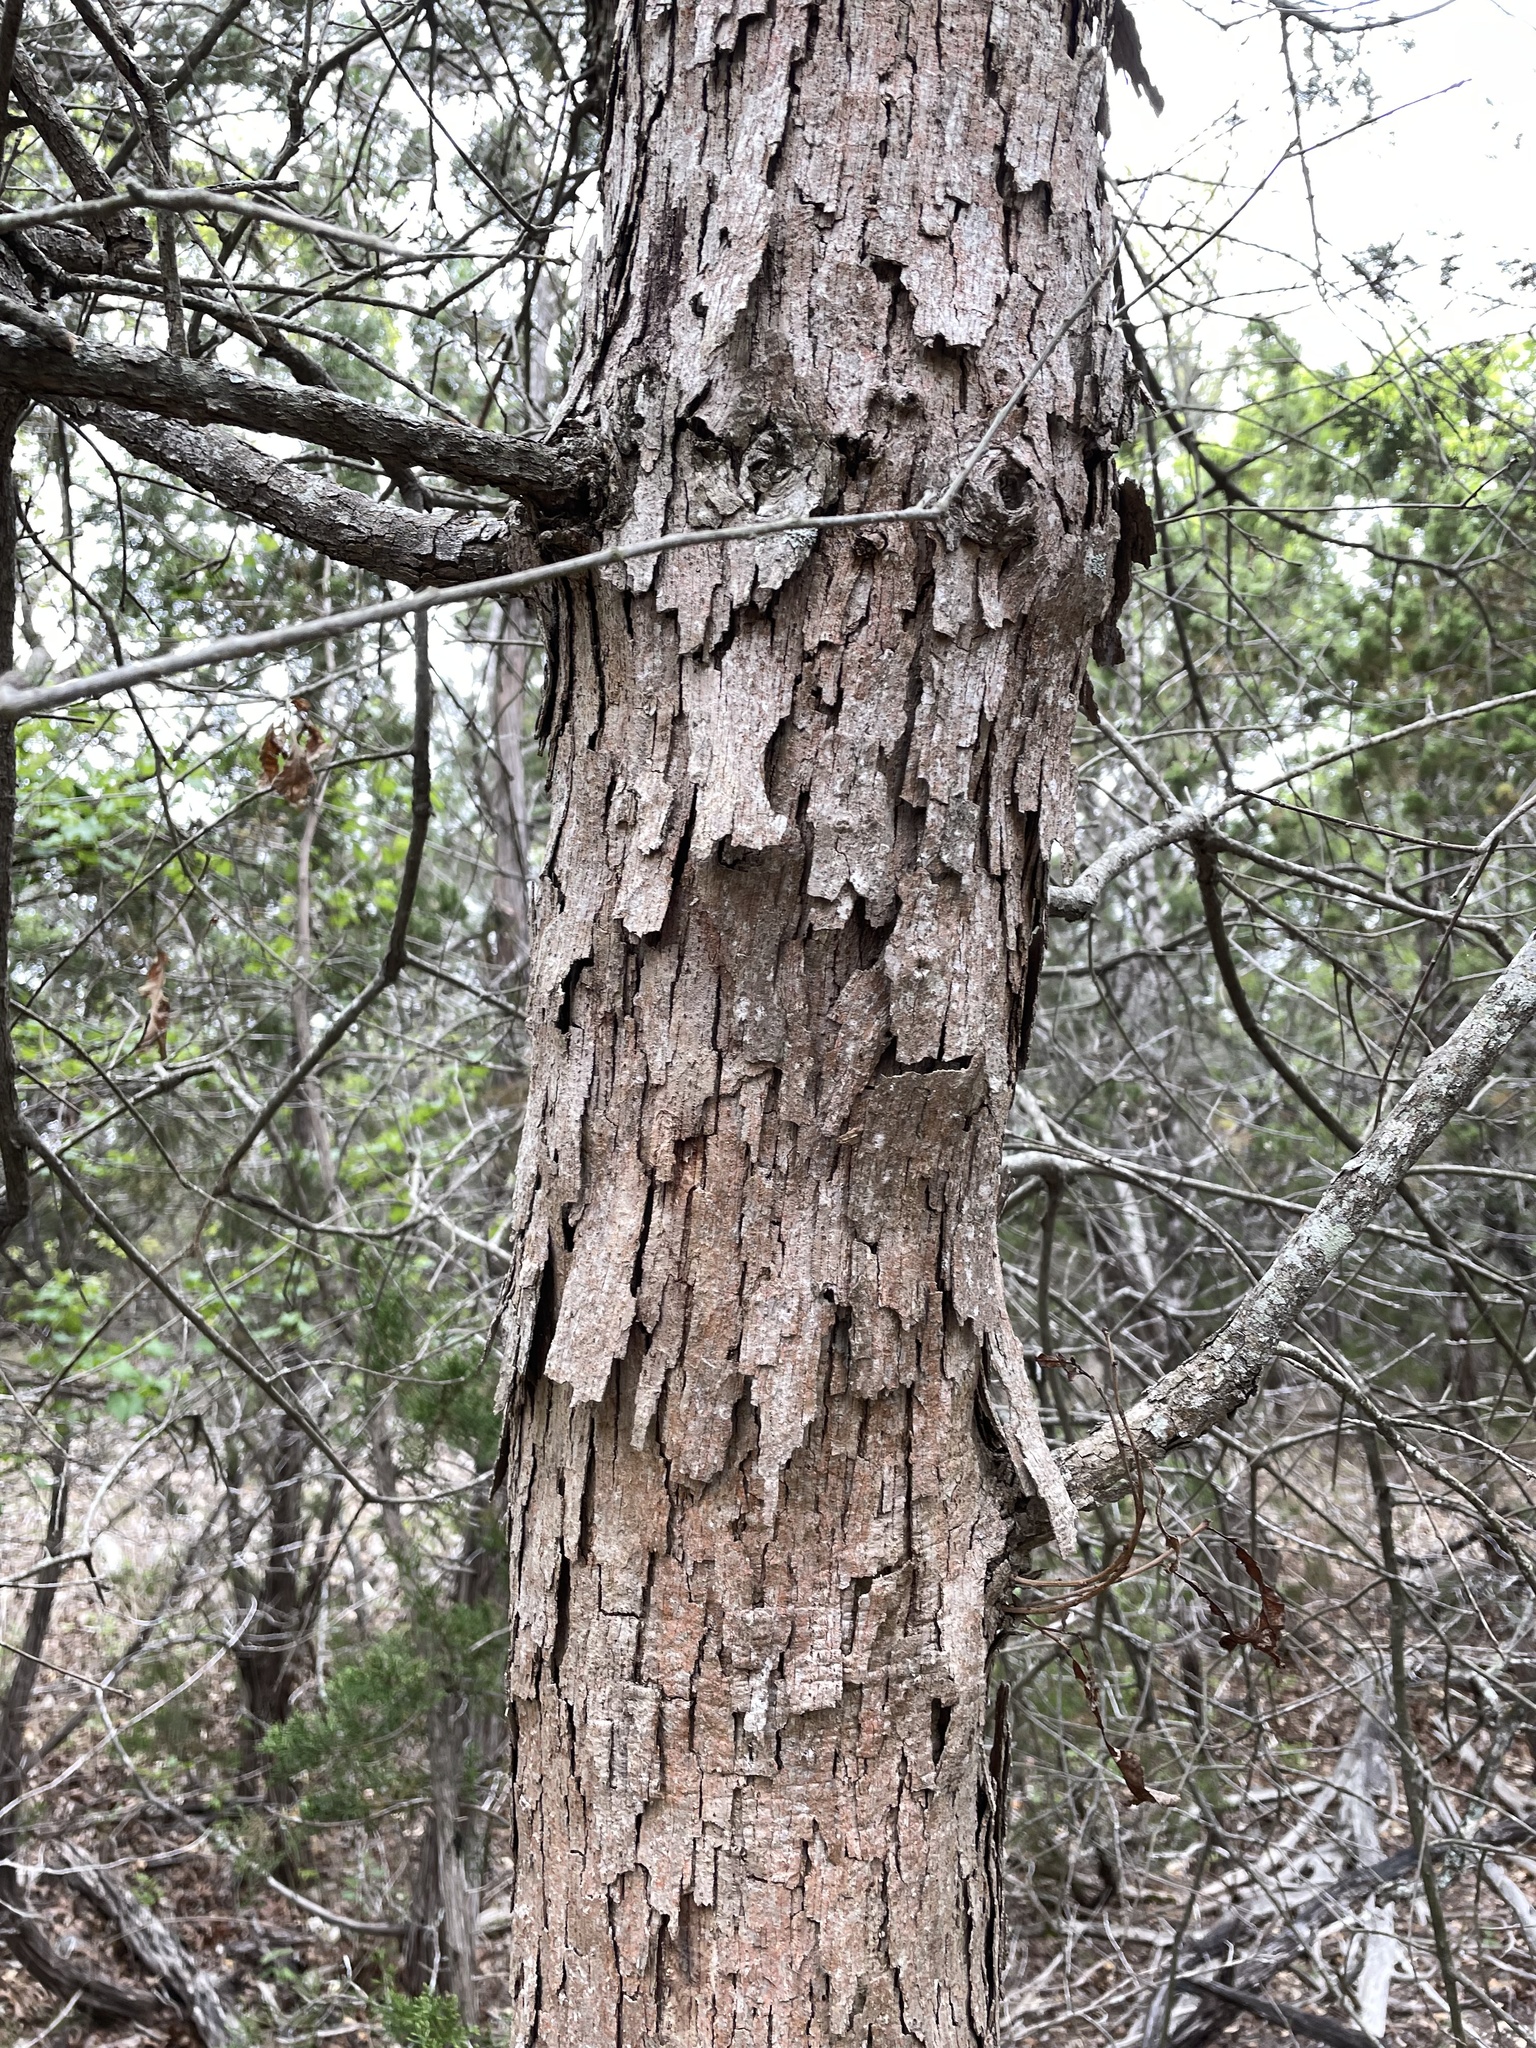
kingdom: Plantae
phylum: Tracheophyta
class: Magnoliopsida
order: Fagales
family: Fagaceae
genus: Quercus
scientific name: Quercus sinuata
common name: Durand oak
